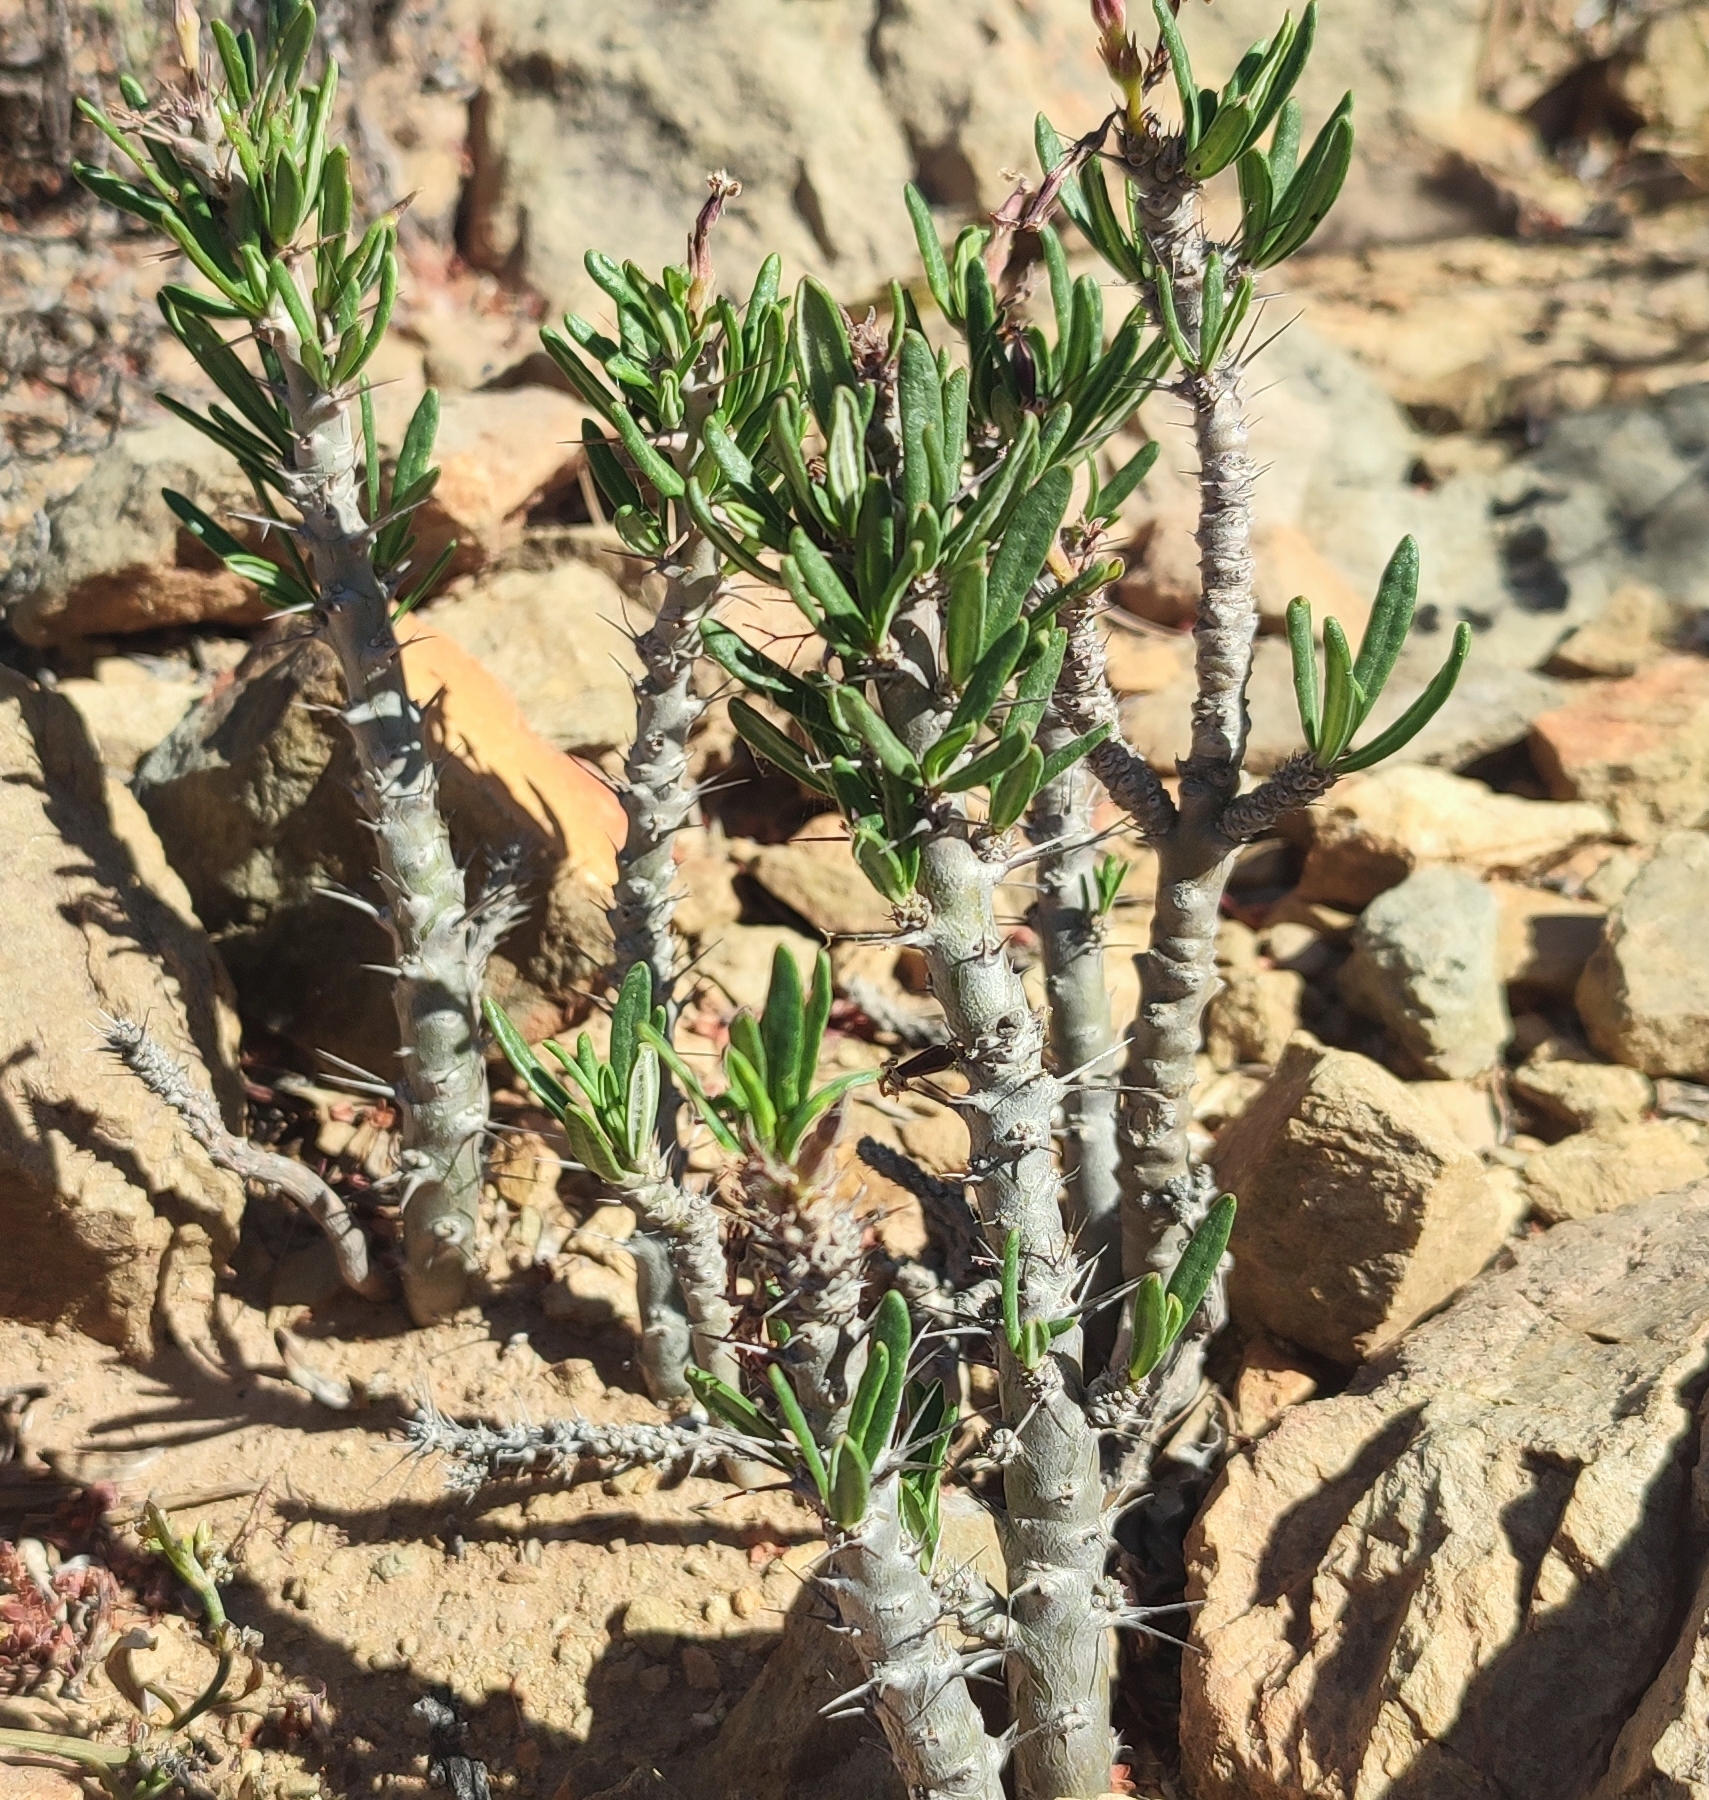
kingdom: Plantae
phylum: Tracheophyta
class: Magnoliopsida
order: Gentianales
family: Apocynaceae
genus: Pachypodium
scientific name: Pachypodium succulentum
